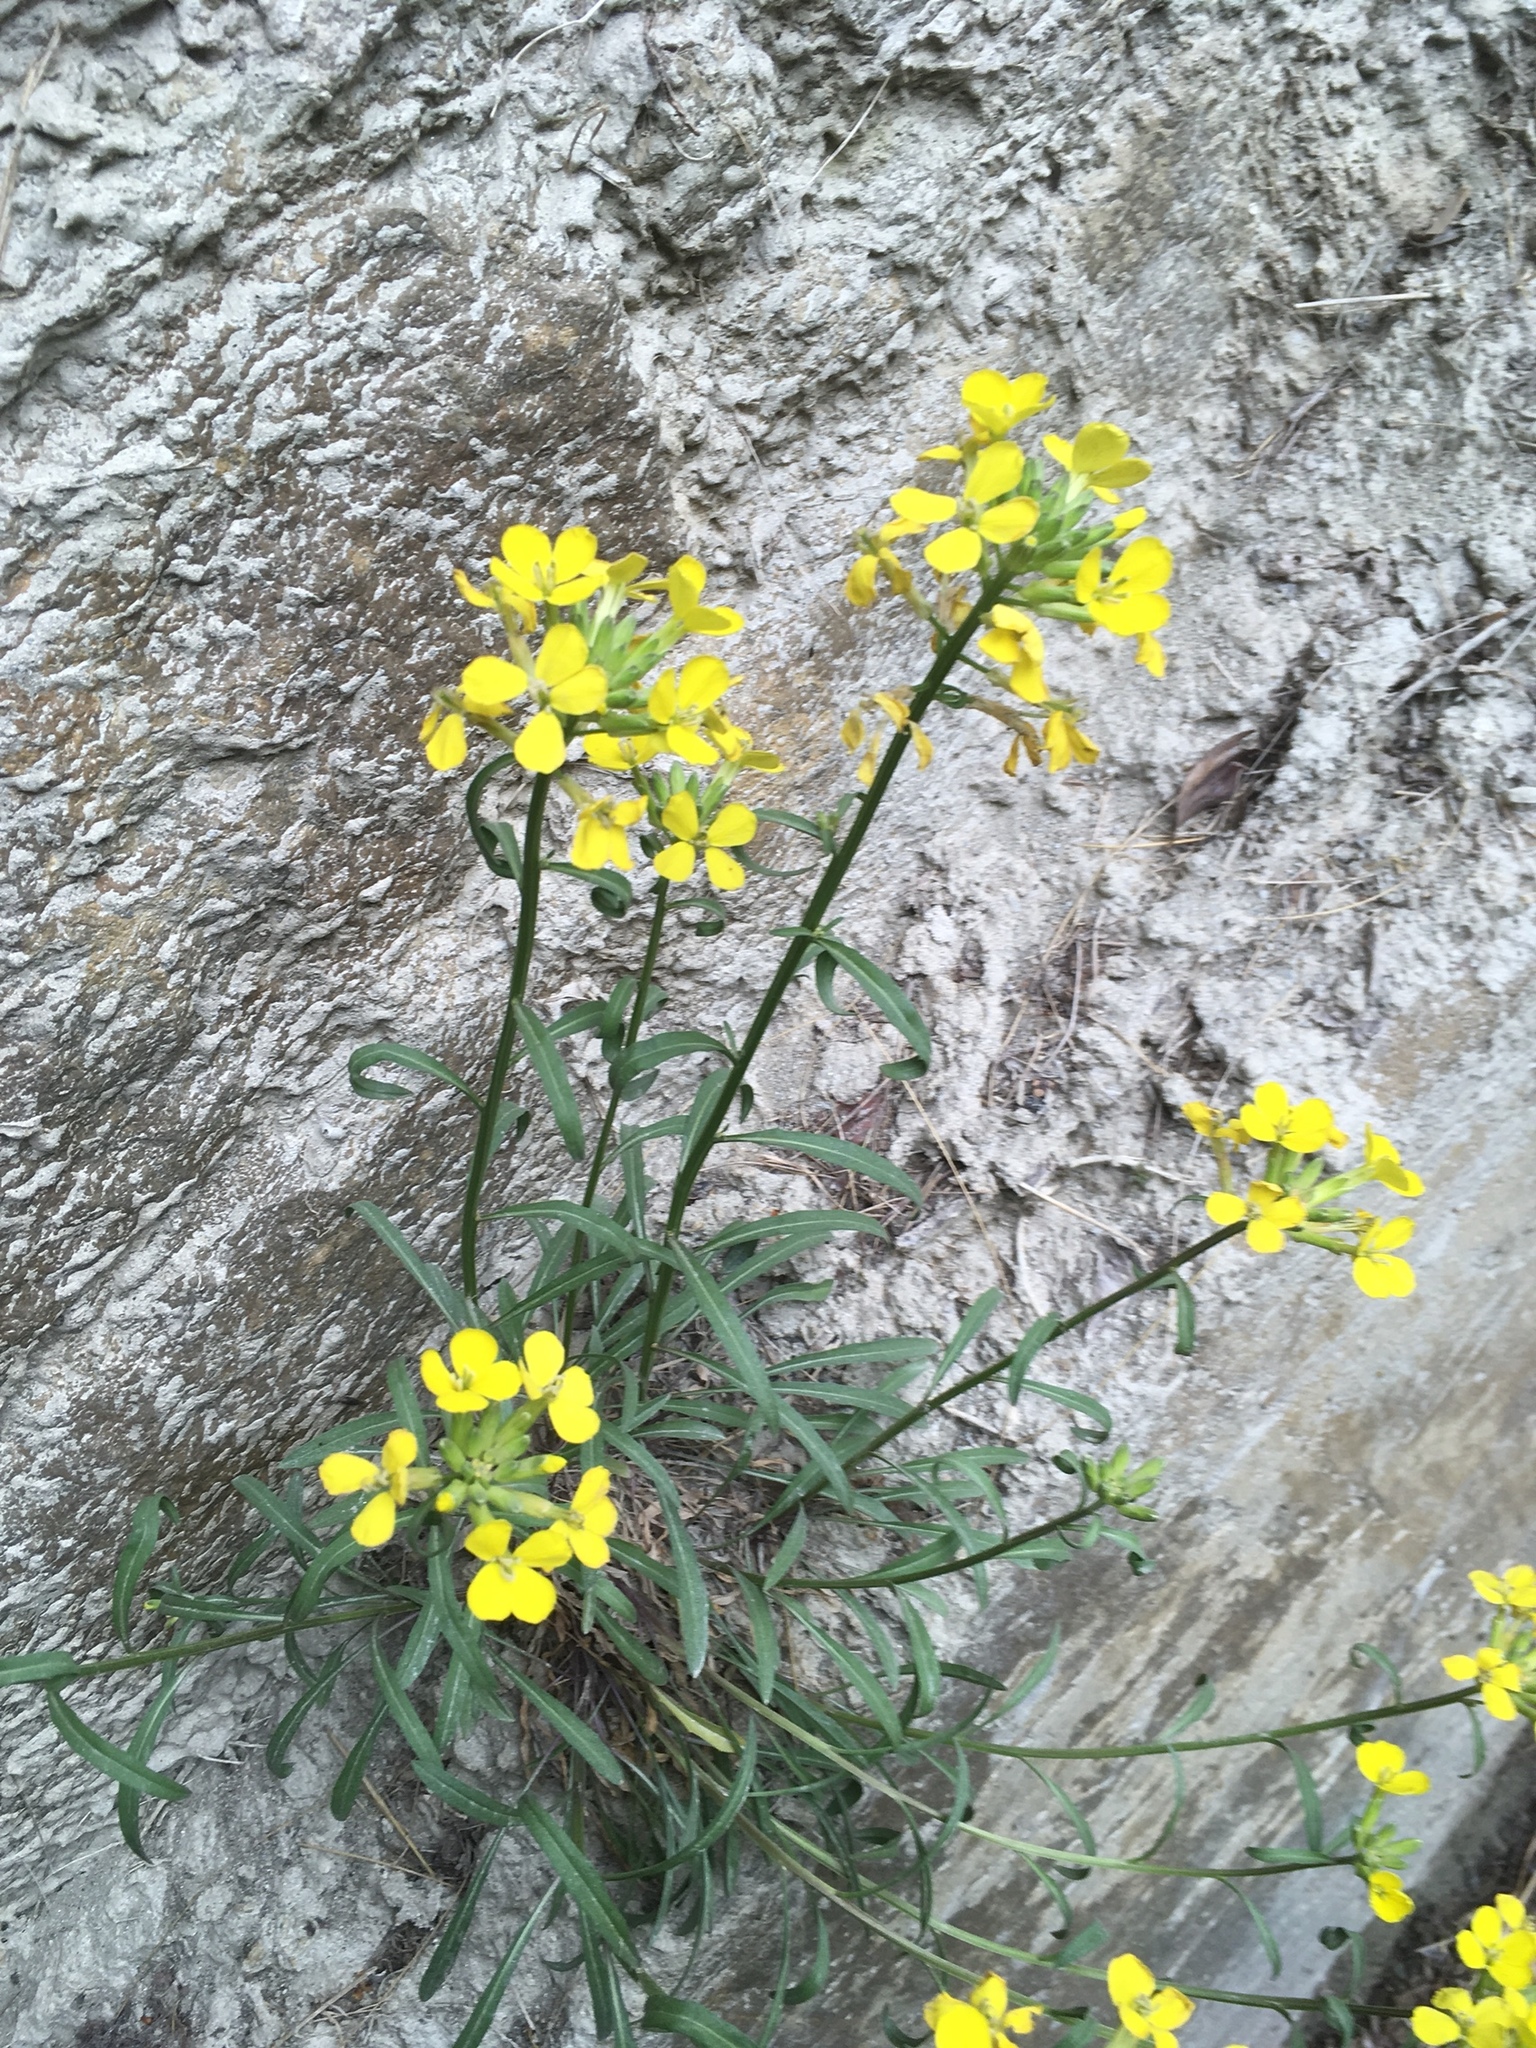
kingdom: Plantae
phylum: Tracheophyta
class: Magnoliopsida
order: Brassicales
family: Brassicaceae
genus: Erysimum
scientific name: Erysimum rhaeticum
